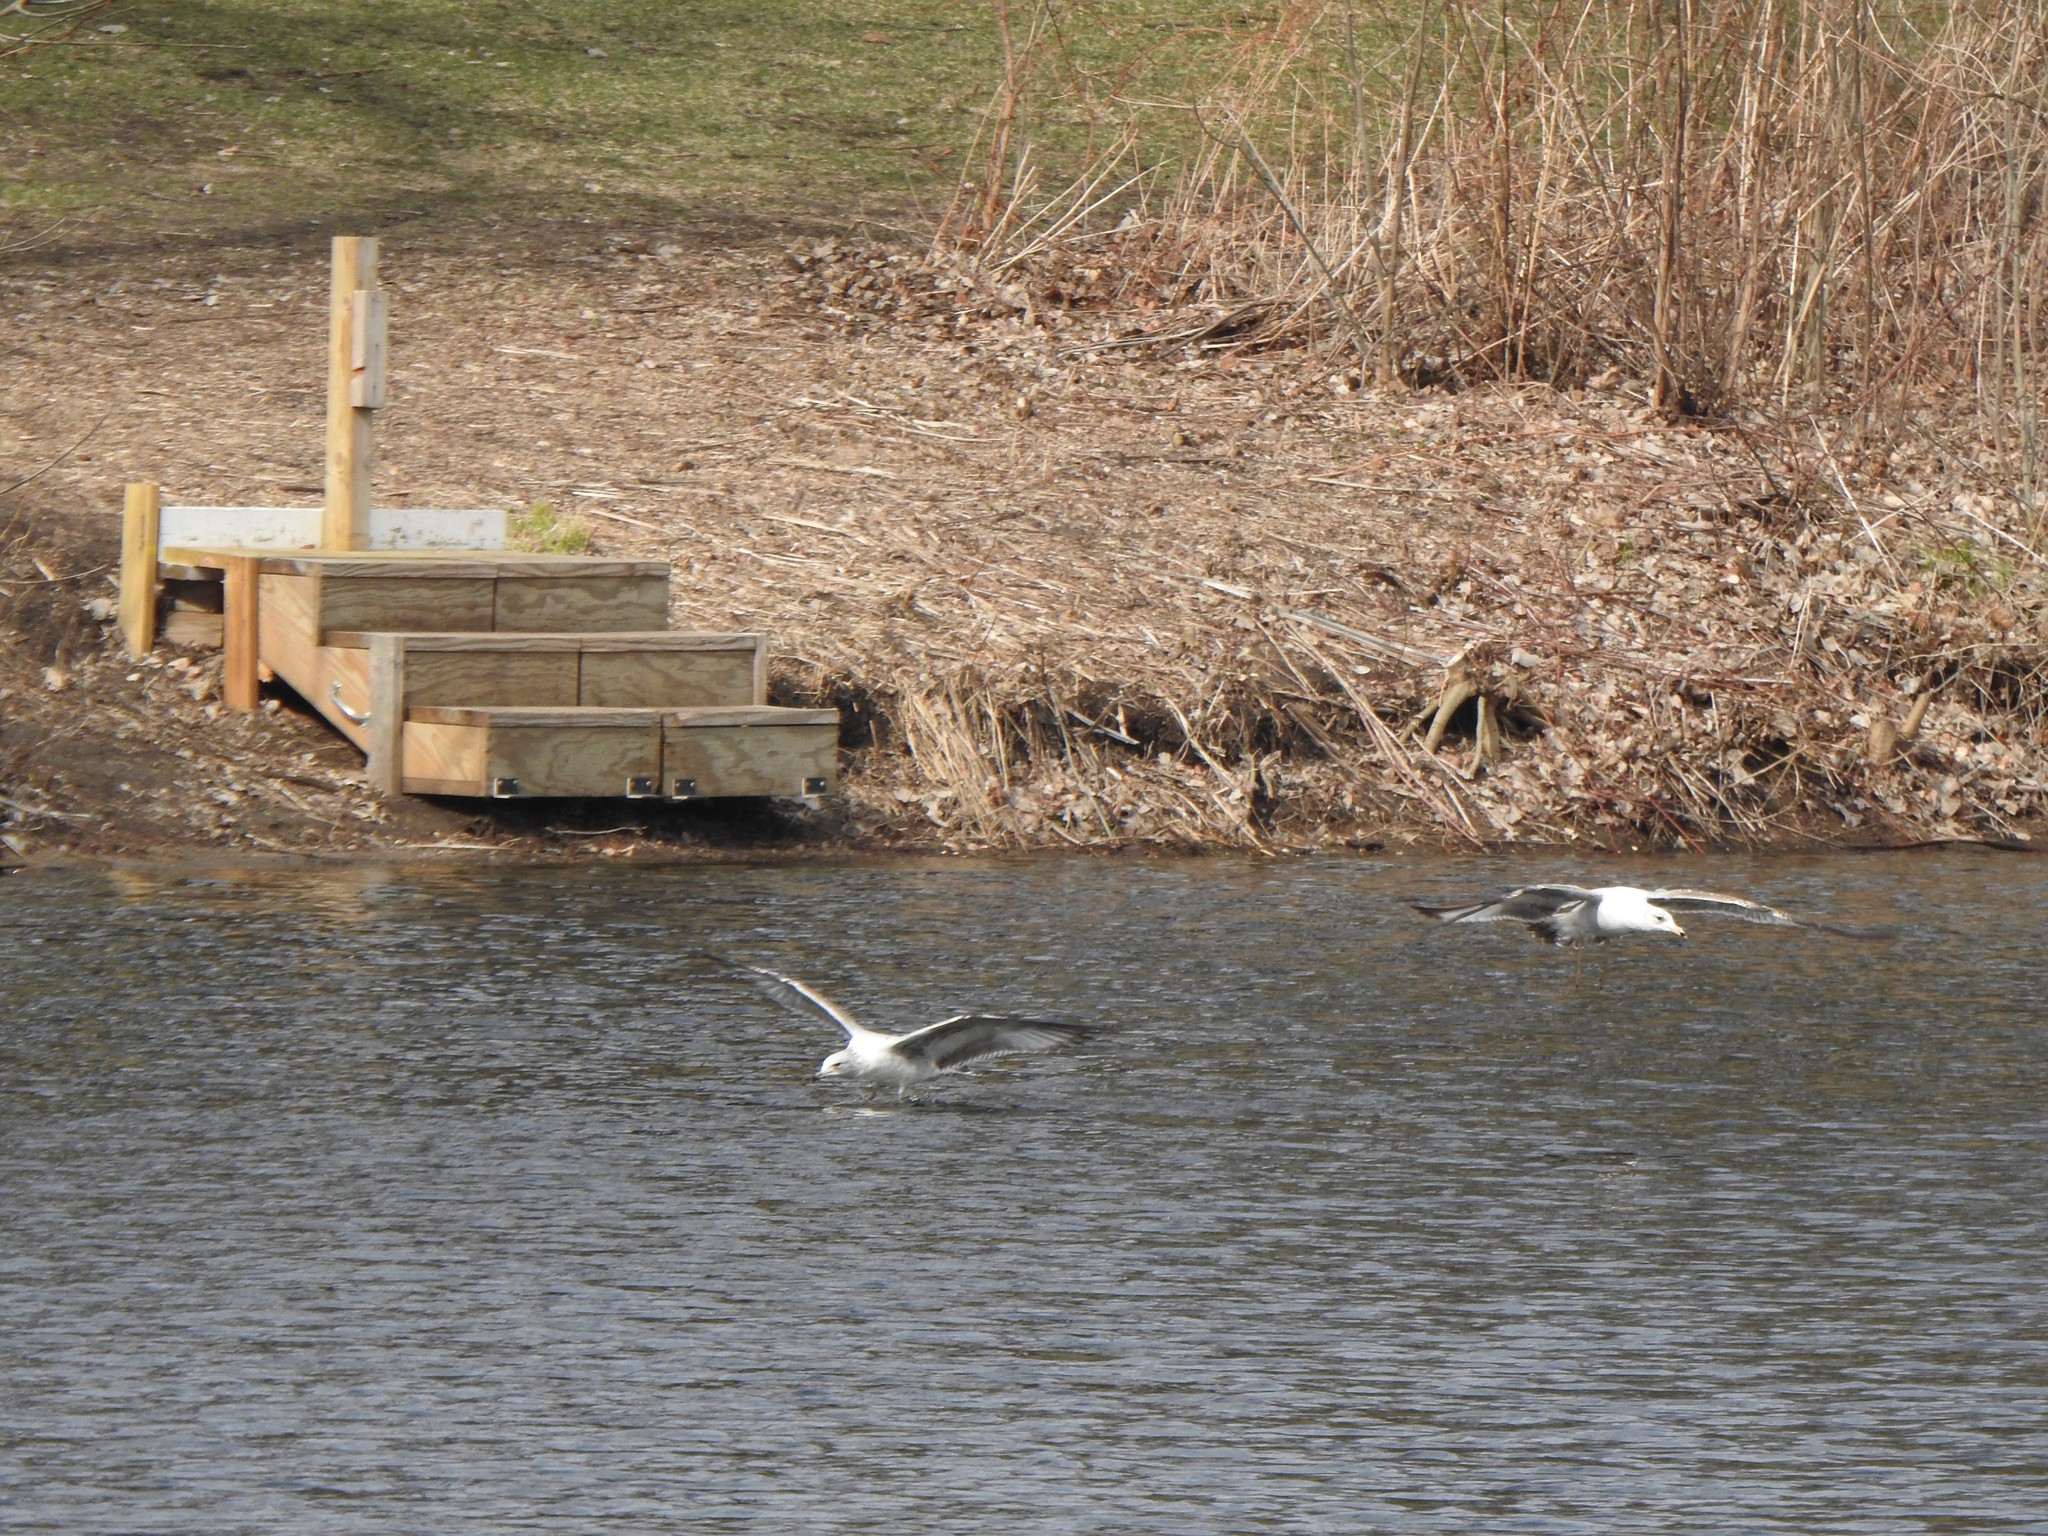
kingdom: Animalia
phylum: Chordata
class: Aves
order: Charadriiformes
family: Laridae
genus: Larus
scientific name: Larus delawarensis
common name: Ring-billed gull
